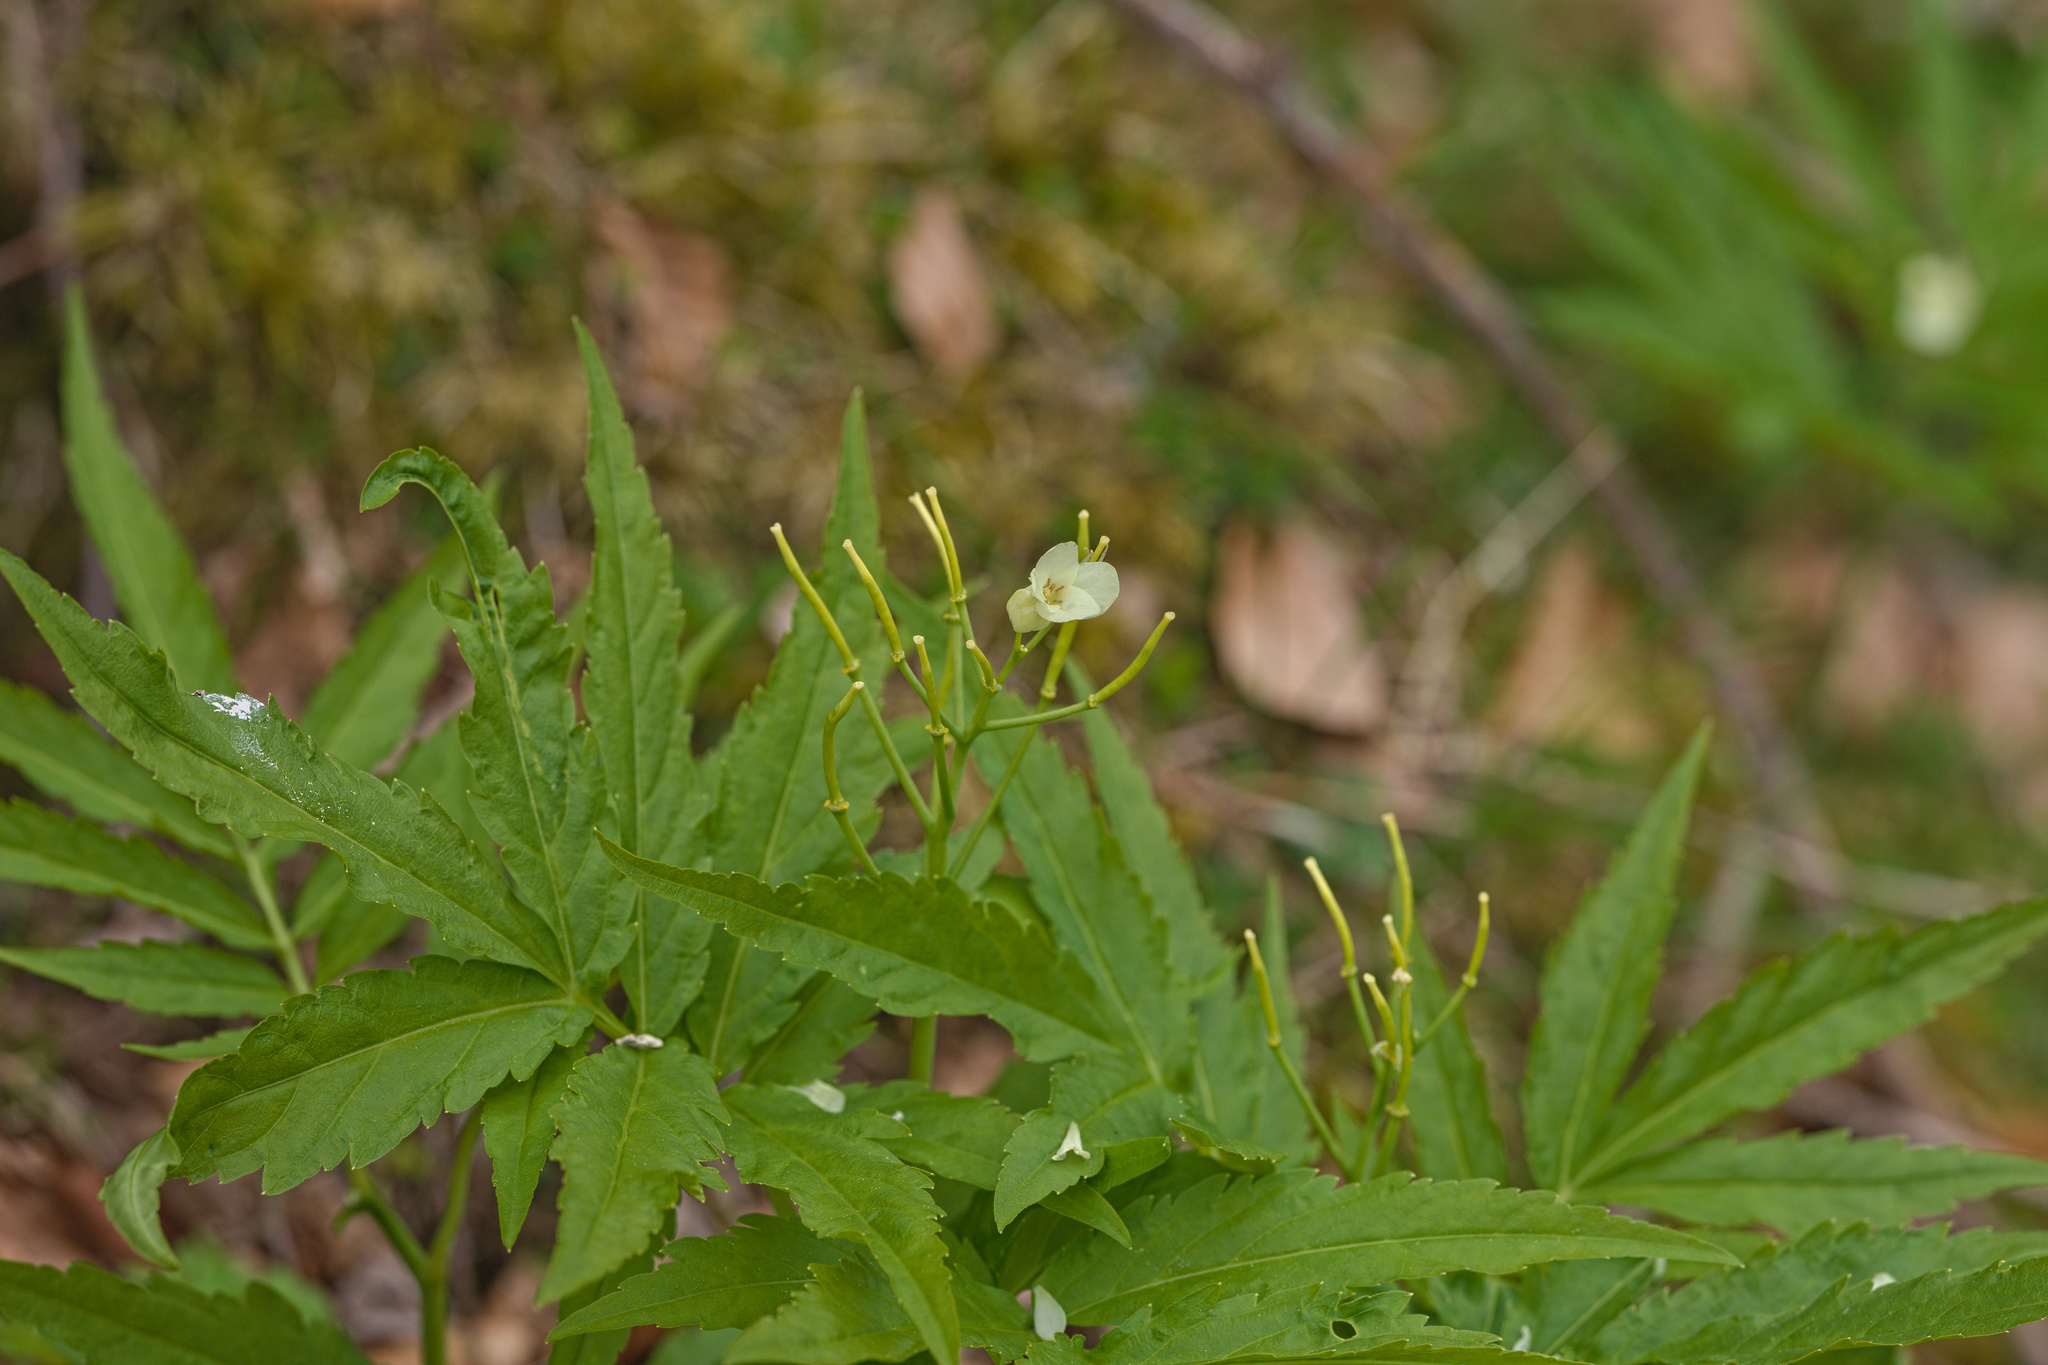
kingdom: Plantae
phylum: Tracheophyta
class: Magnoliopsida
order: Brassicales
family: Brassicaceae
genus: Cardamine
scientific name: Cardamine kitaibelii
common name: Kitaibel's bitter-cress
